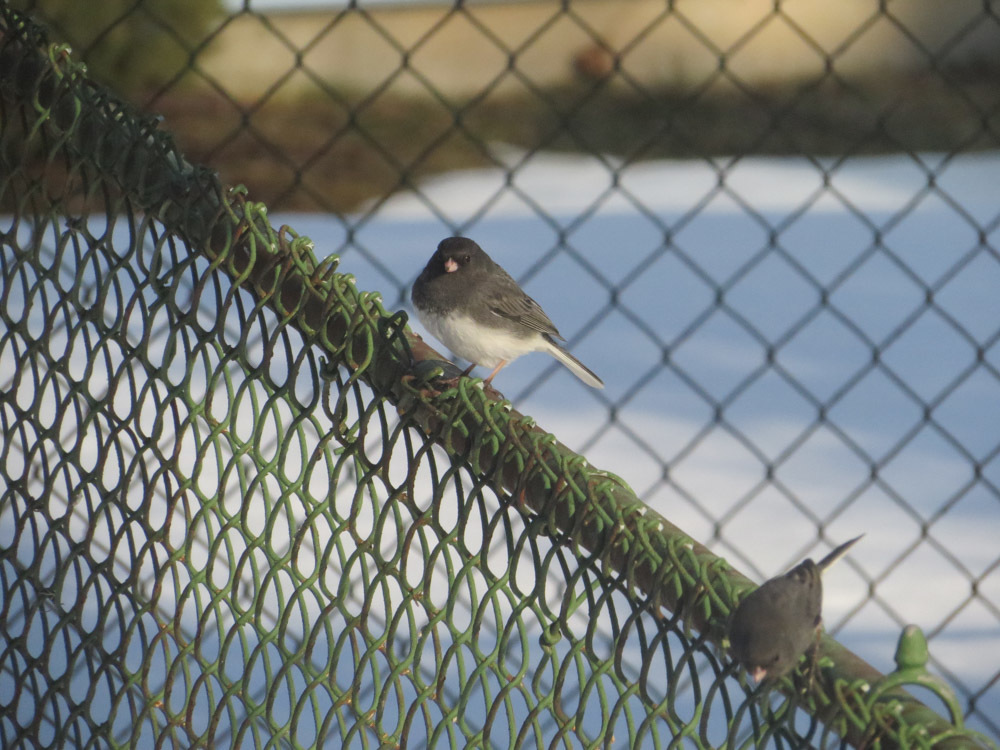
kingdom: Animalia
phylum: Chordata
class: Aves
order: Passeriformes
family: Passerellidae
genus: Junco
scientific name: Junco hyemalis
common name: Dark-eyed junco
